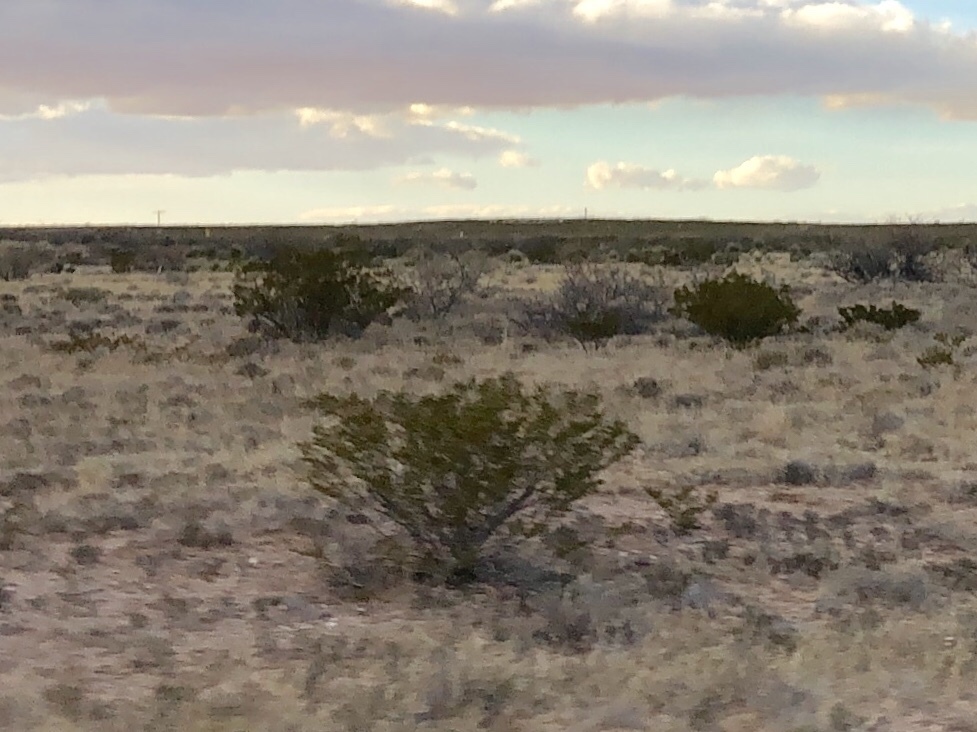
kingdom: Plantae
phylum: Tracheophyta
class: Magnoliopsida
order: Zygophyllales
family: Zygophyllaceae
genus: Larrea
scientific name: Larrea tridentata
